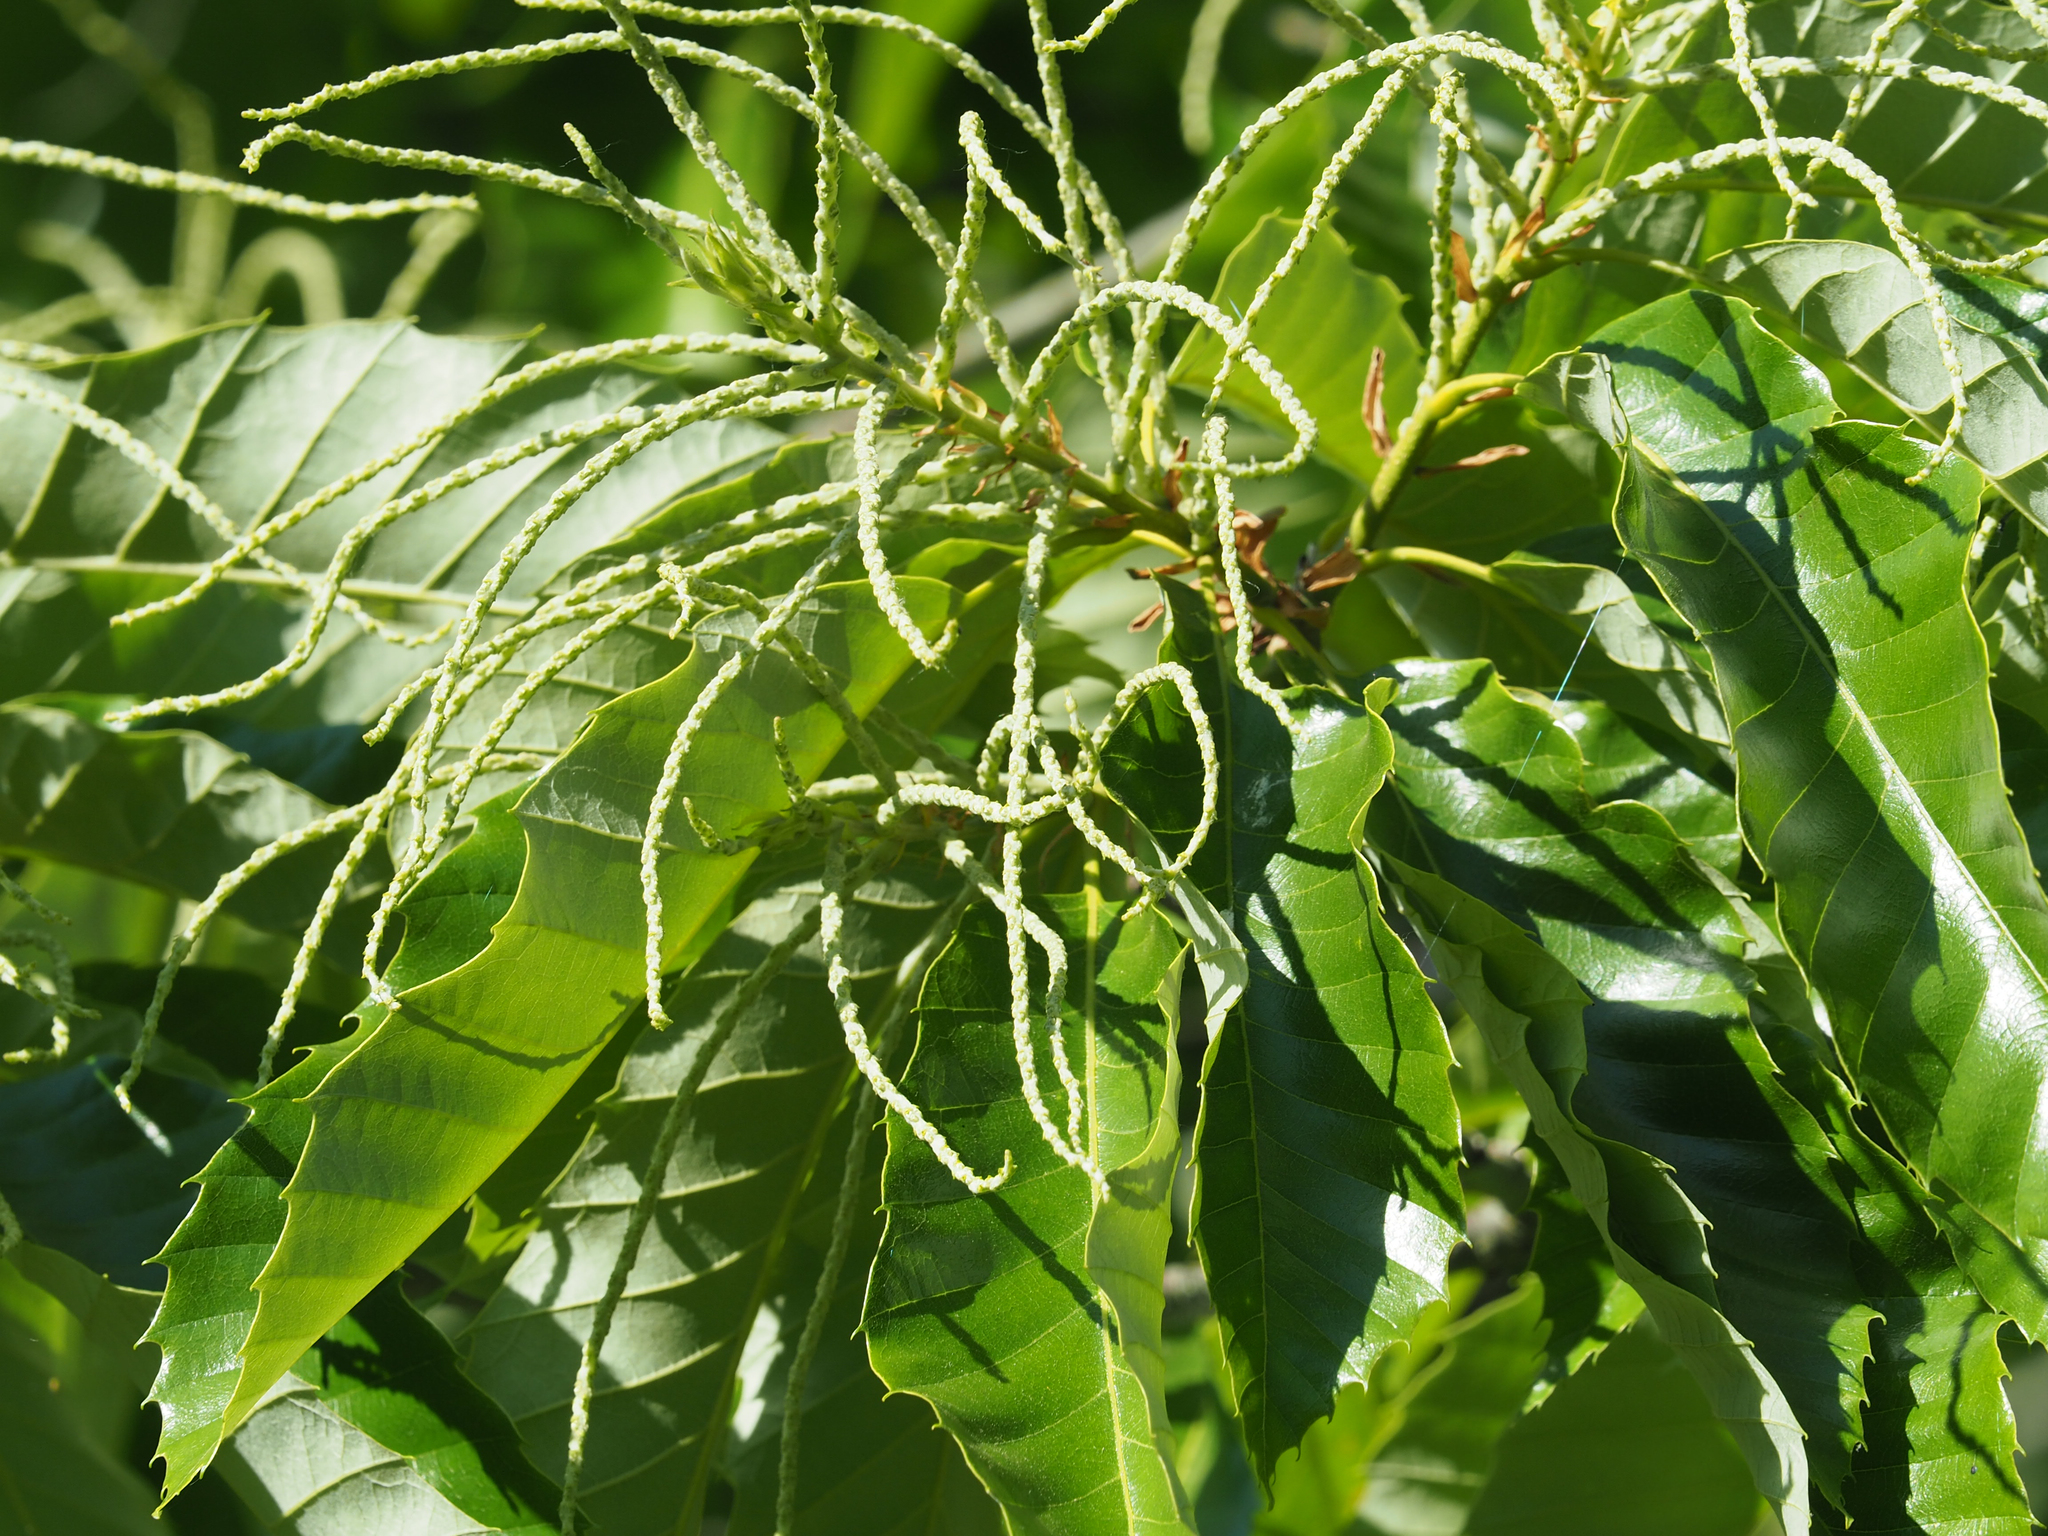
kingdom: Plantae
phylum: Tracheophyta
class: Magnoliopsida
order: Fagales
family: Fagaceae
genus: Castanea
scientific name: Castanea mollissima
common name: Chinese chestnut
